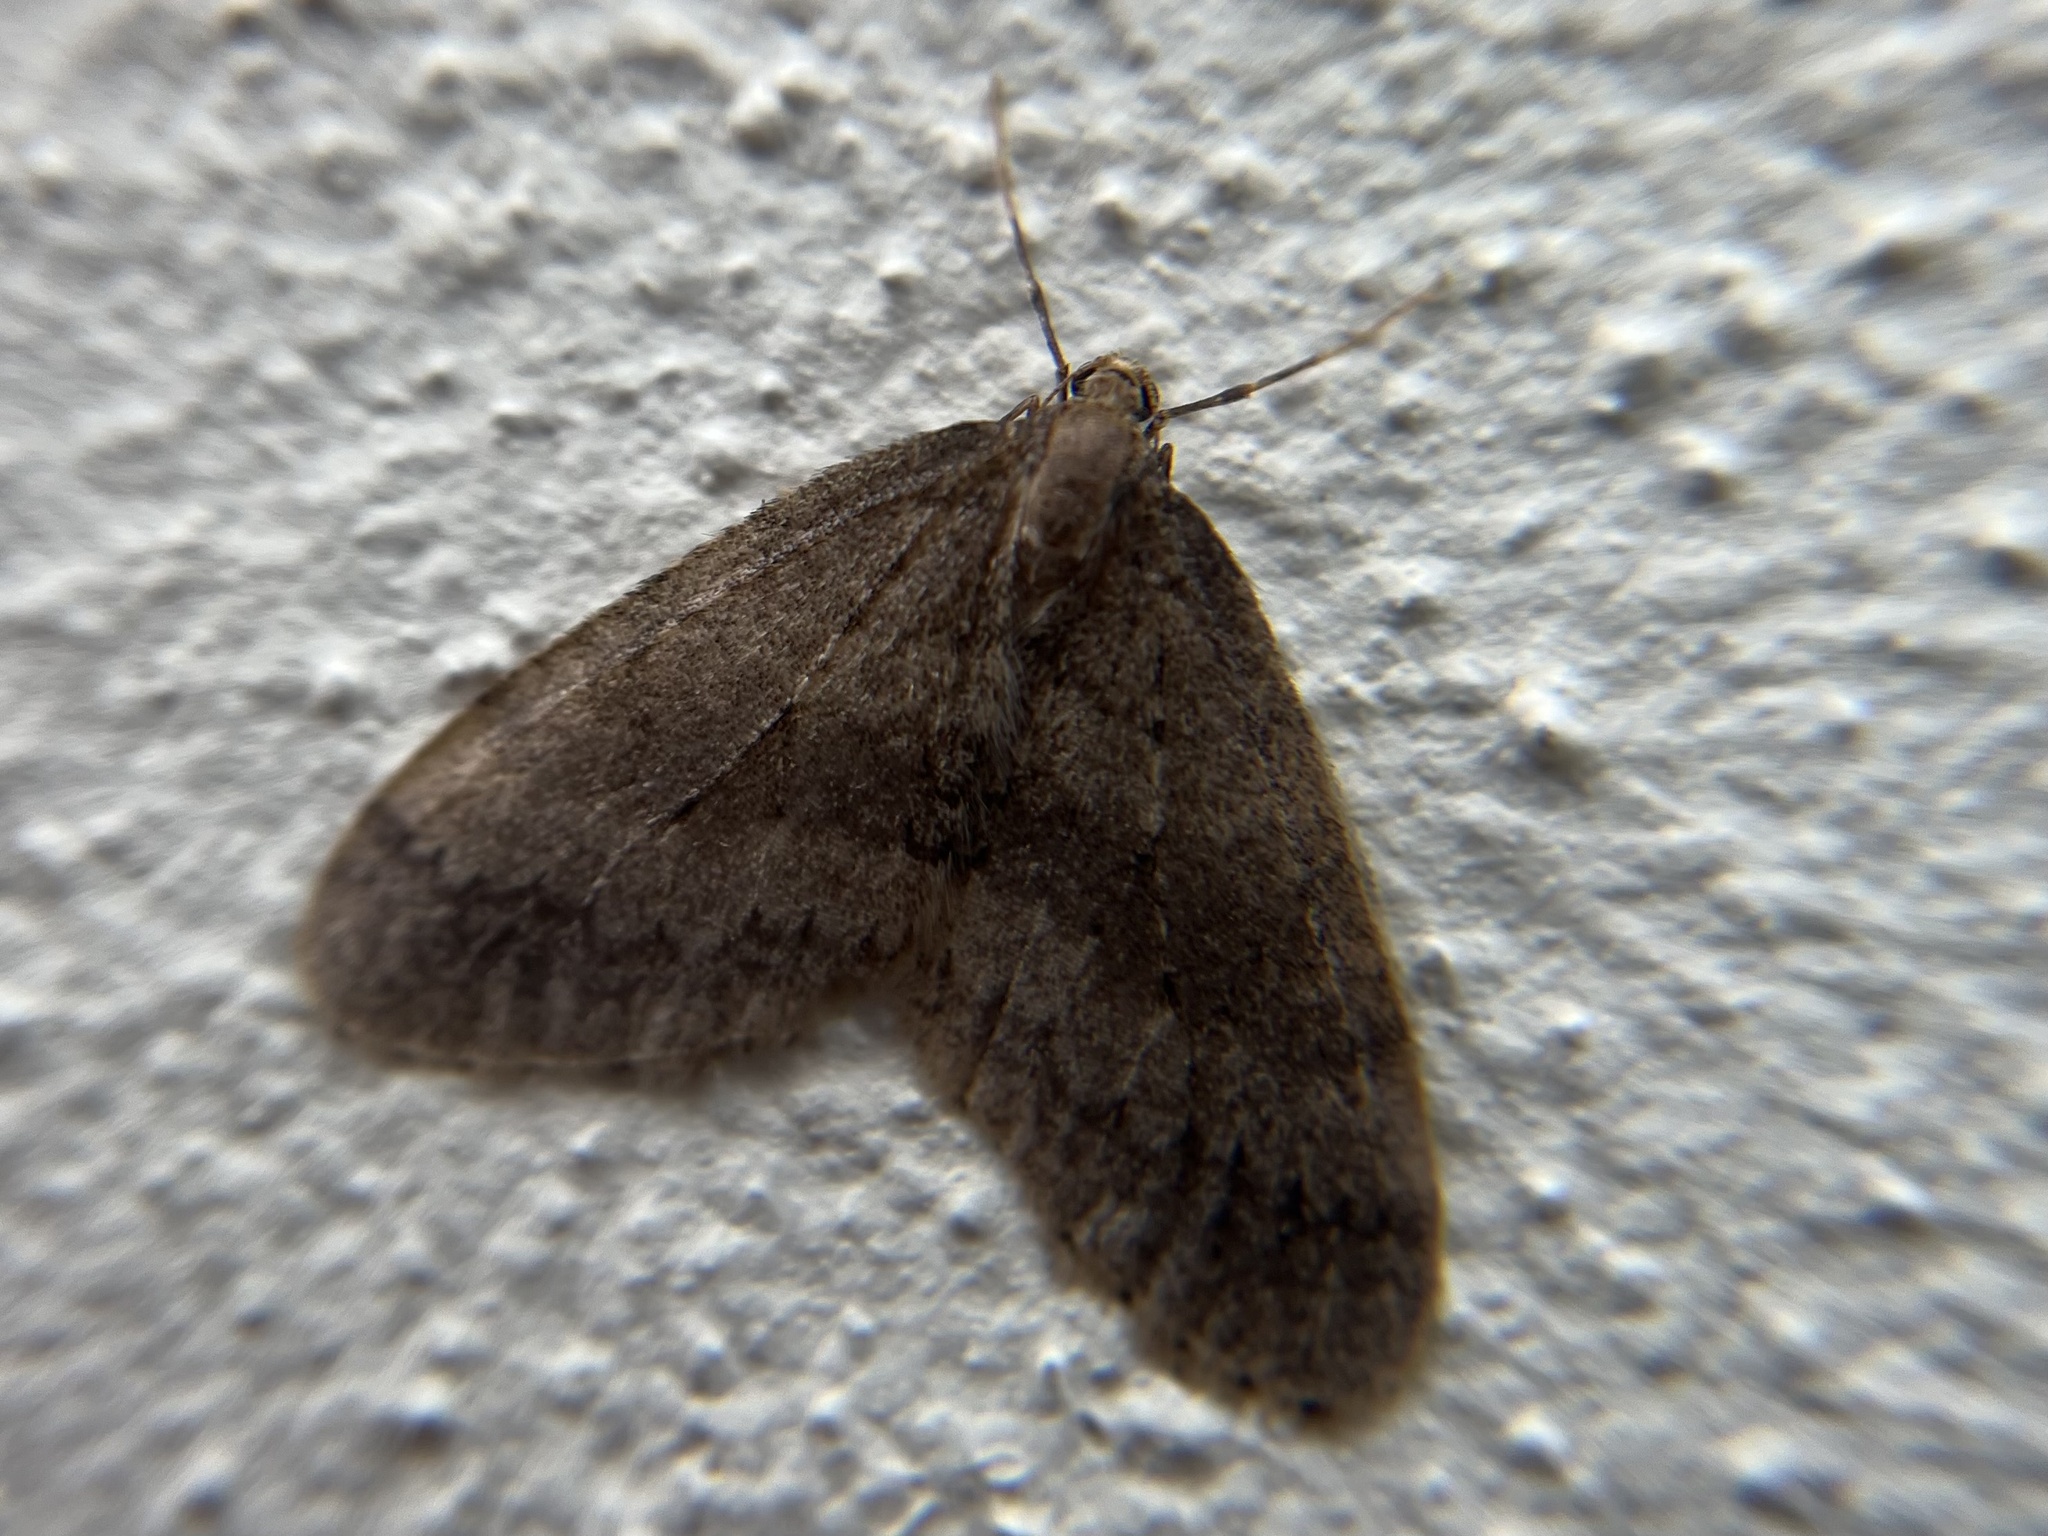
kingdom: Animalia
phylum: Arthropoda
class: Insecta
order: Lepidoptera
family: Geometridae
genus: Operophtera
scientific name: Operophtera brumata
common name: Winter moth
